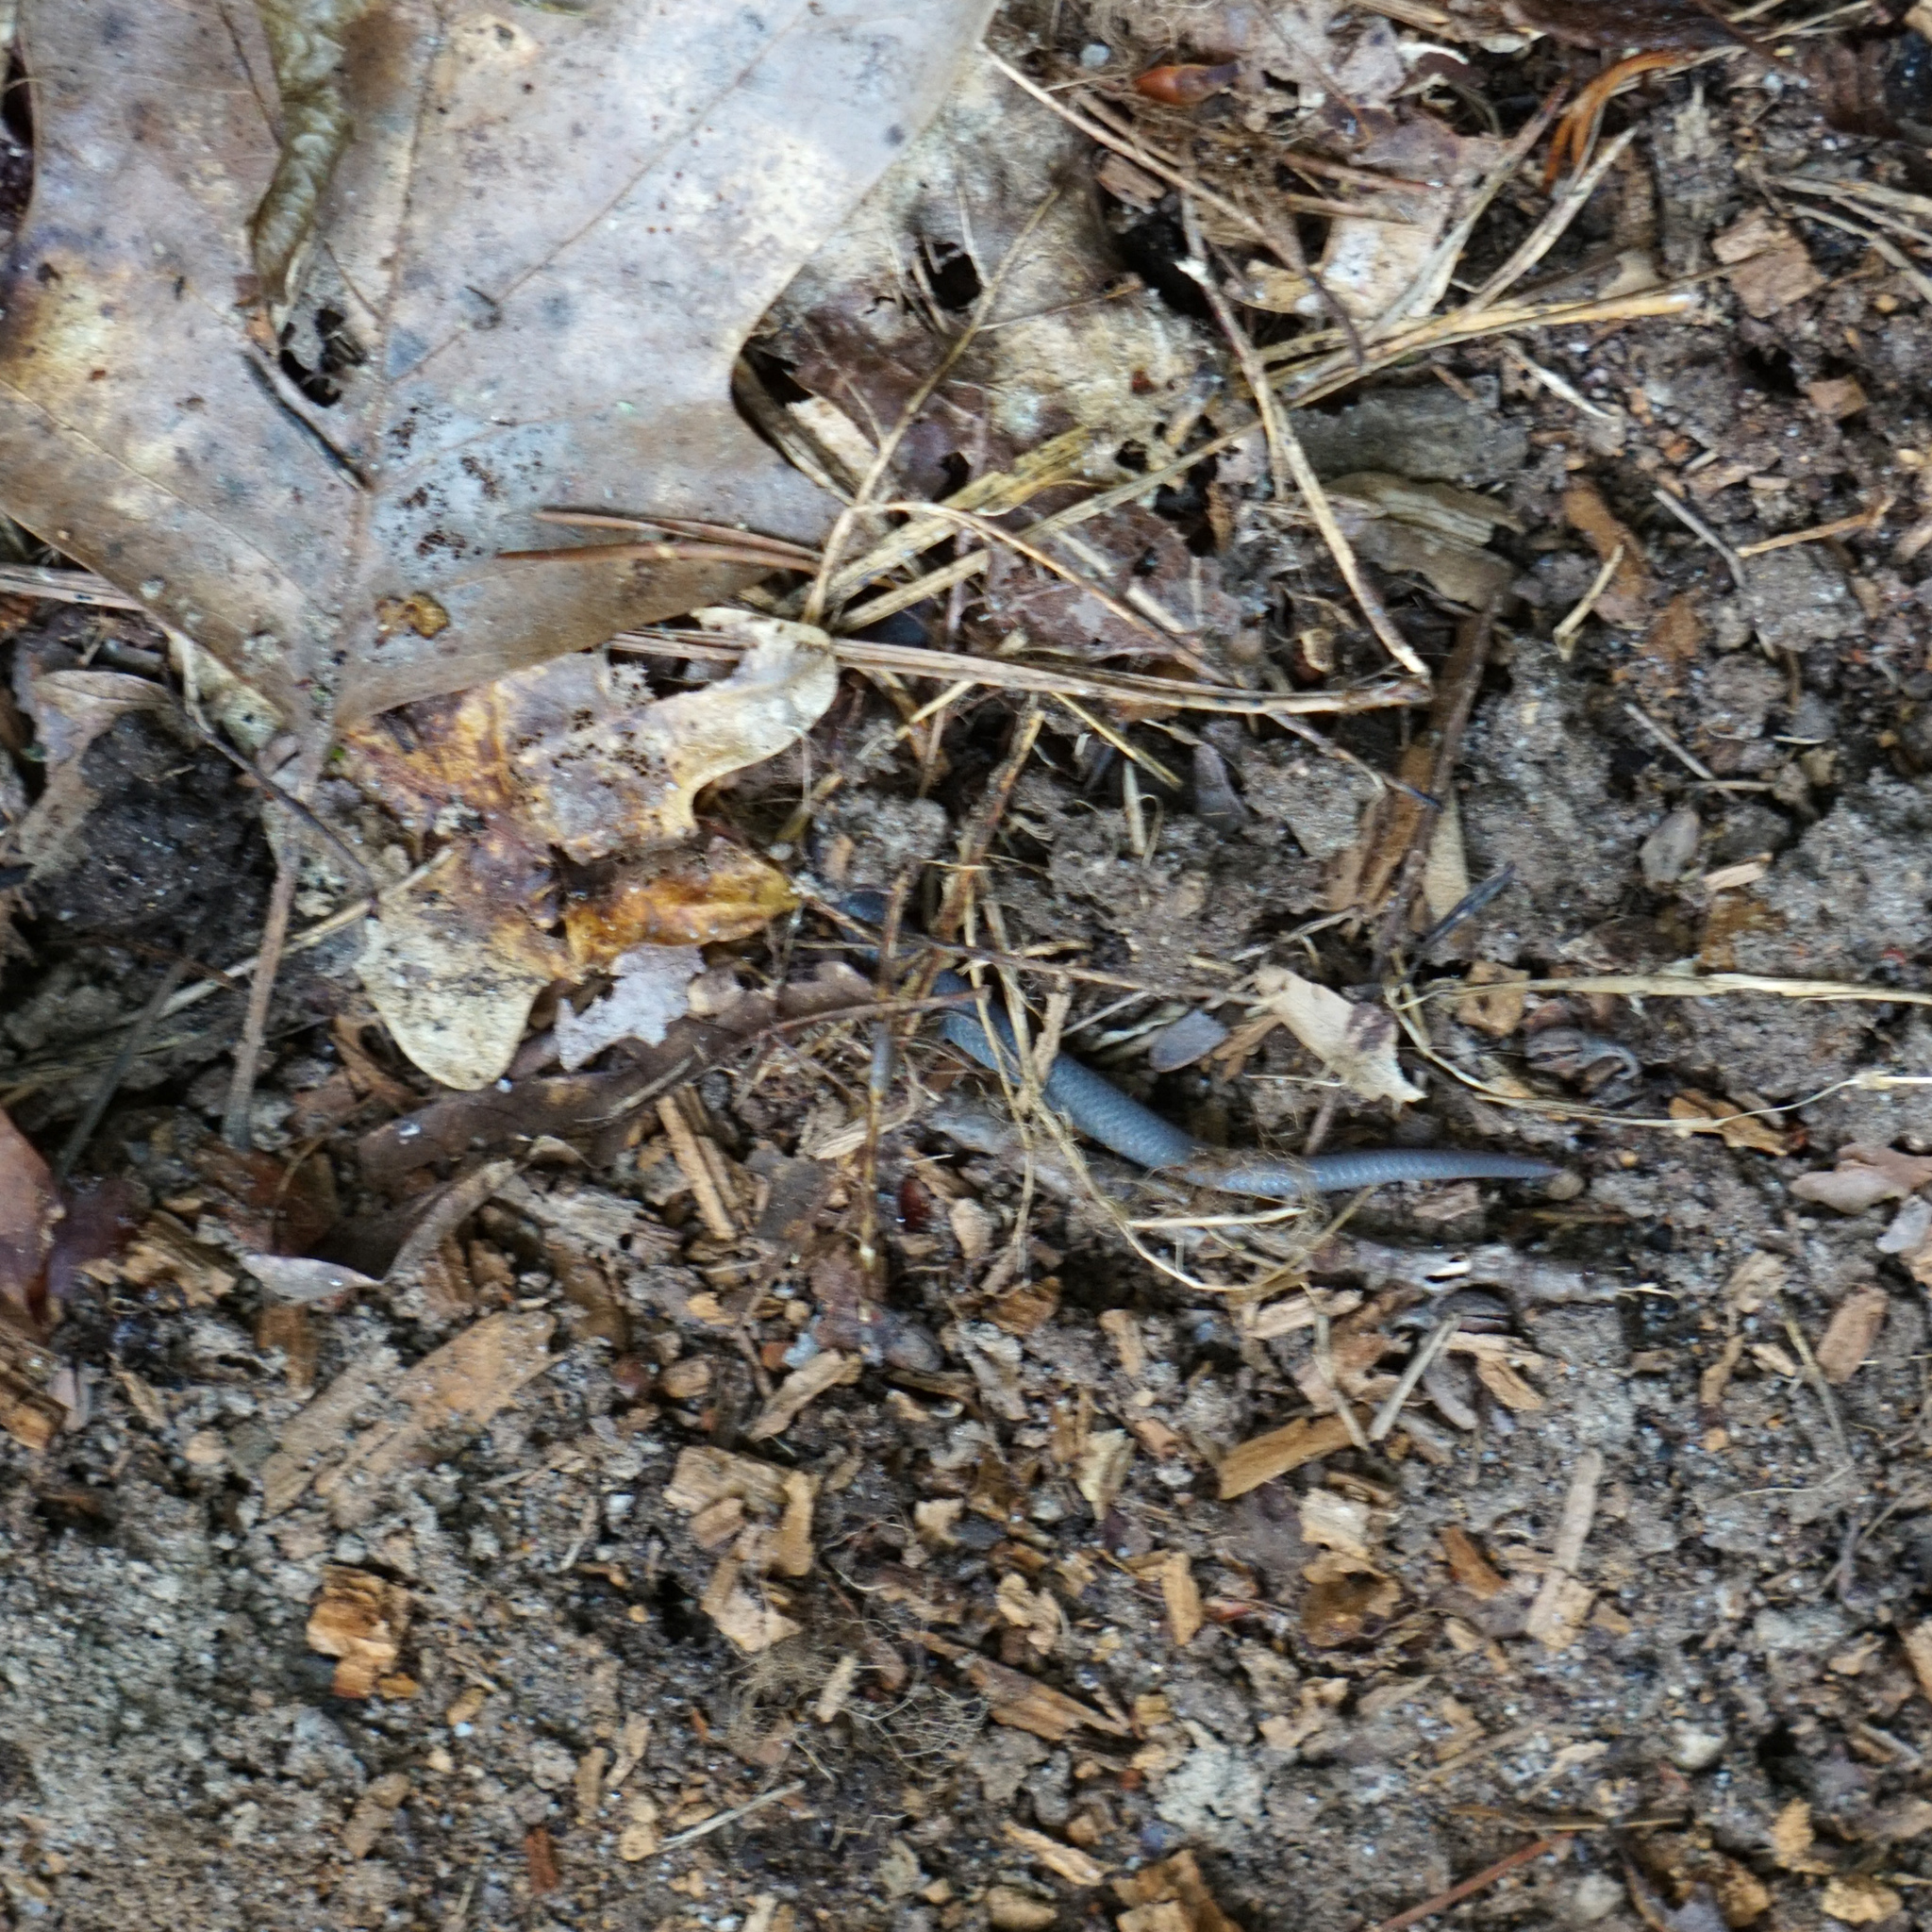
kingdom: Animalia
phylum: Chordata
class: Squamata
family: Colubridae
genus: Carphophis
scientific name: Carphophis amoenus
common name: Eastern worm snake
